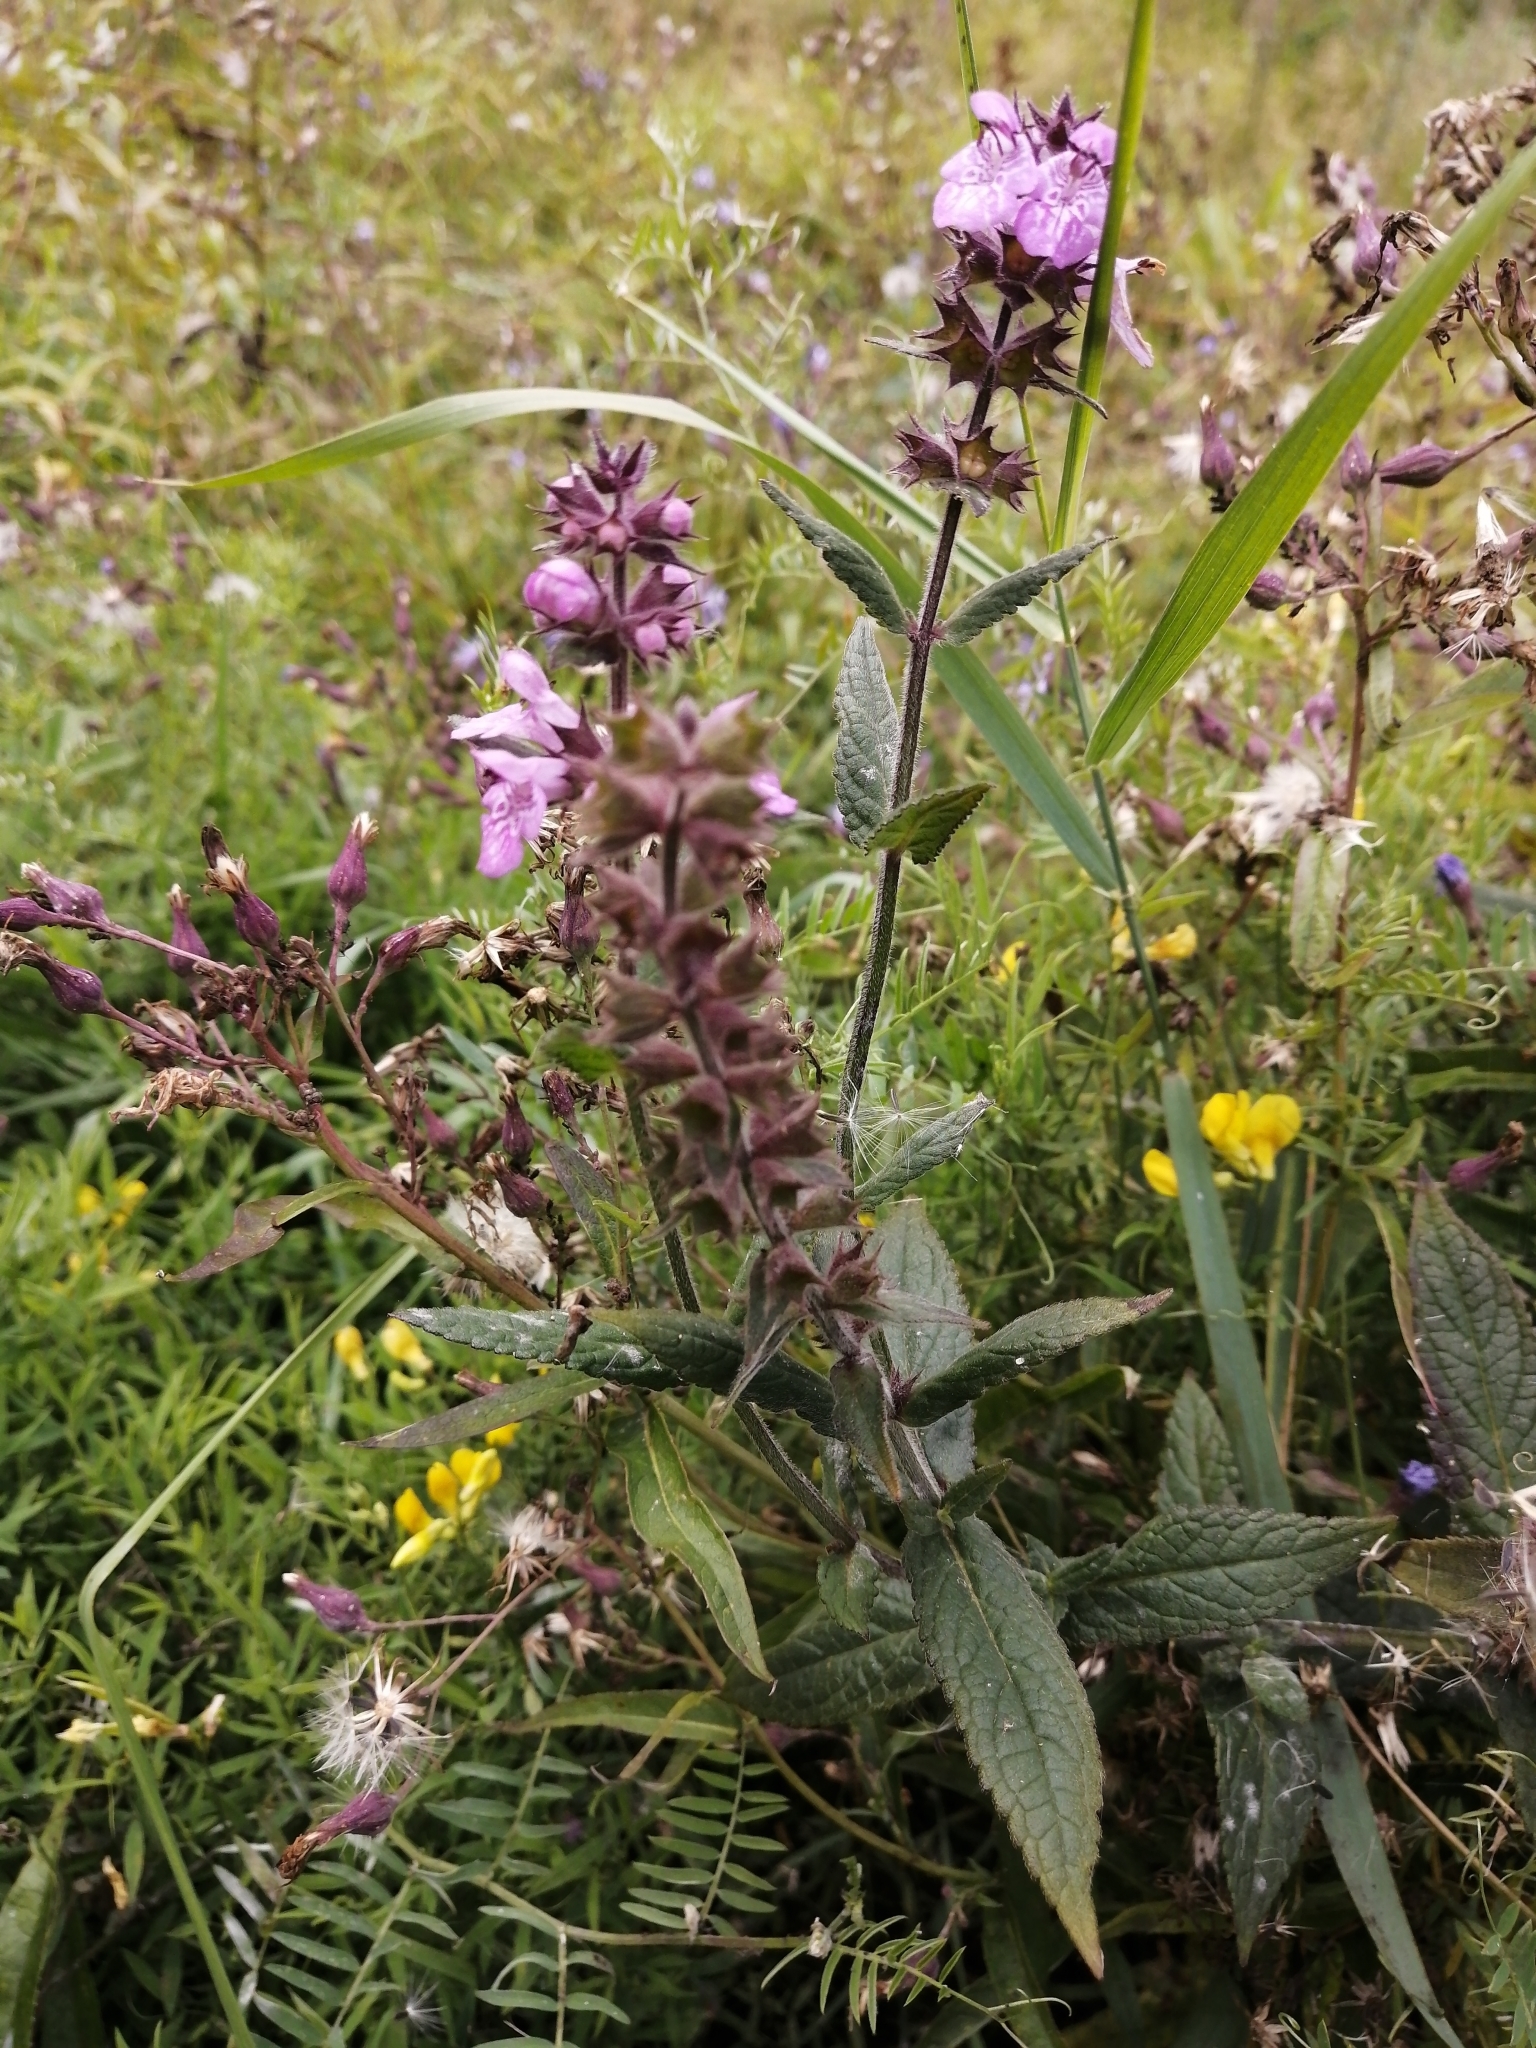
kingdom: Plantae
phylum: Tracheophyta
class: Magnoliopsida
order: Lamiales
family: Lamiaceae
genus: Stachys
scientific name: Stachys palustris
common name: Marsh woundwort
